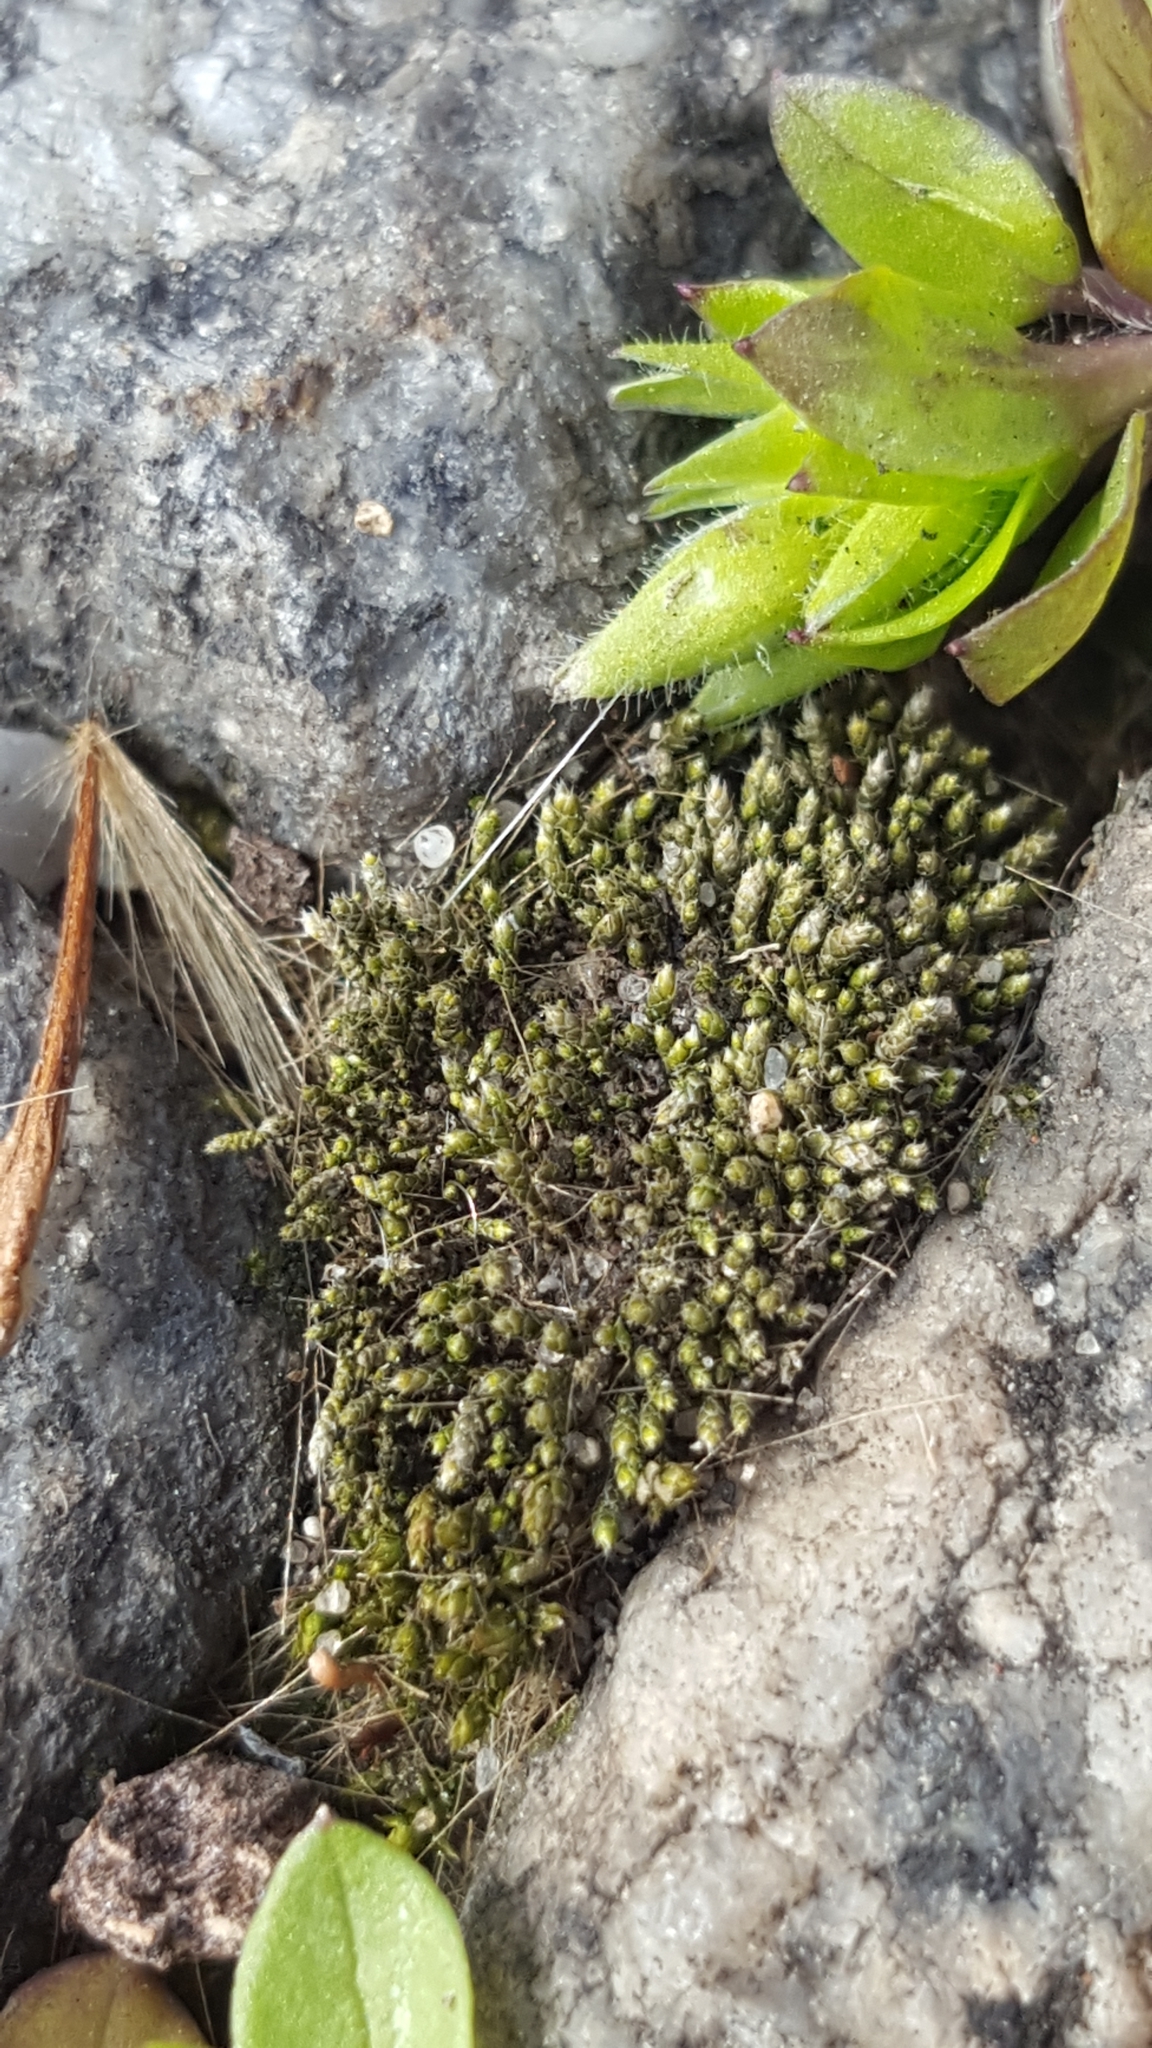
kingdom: Plantae
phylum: Bryophyta
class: Bryopsida
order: Bryales
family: Bryaceae
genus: Bryum
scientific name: Bryum argenteum
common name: Silver-moss
